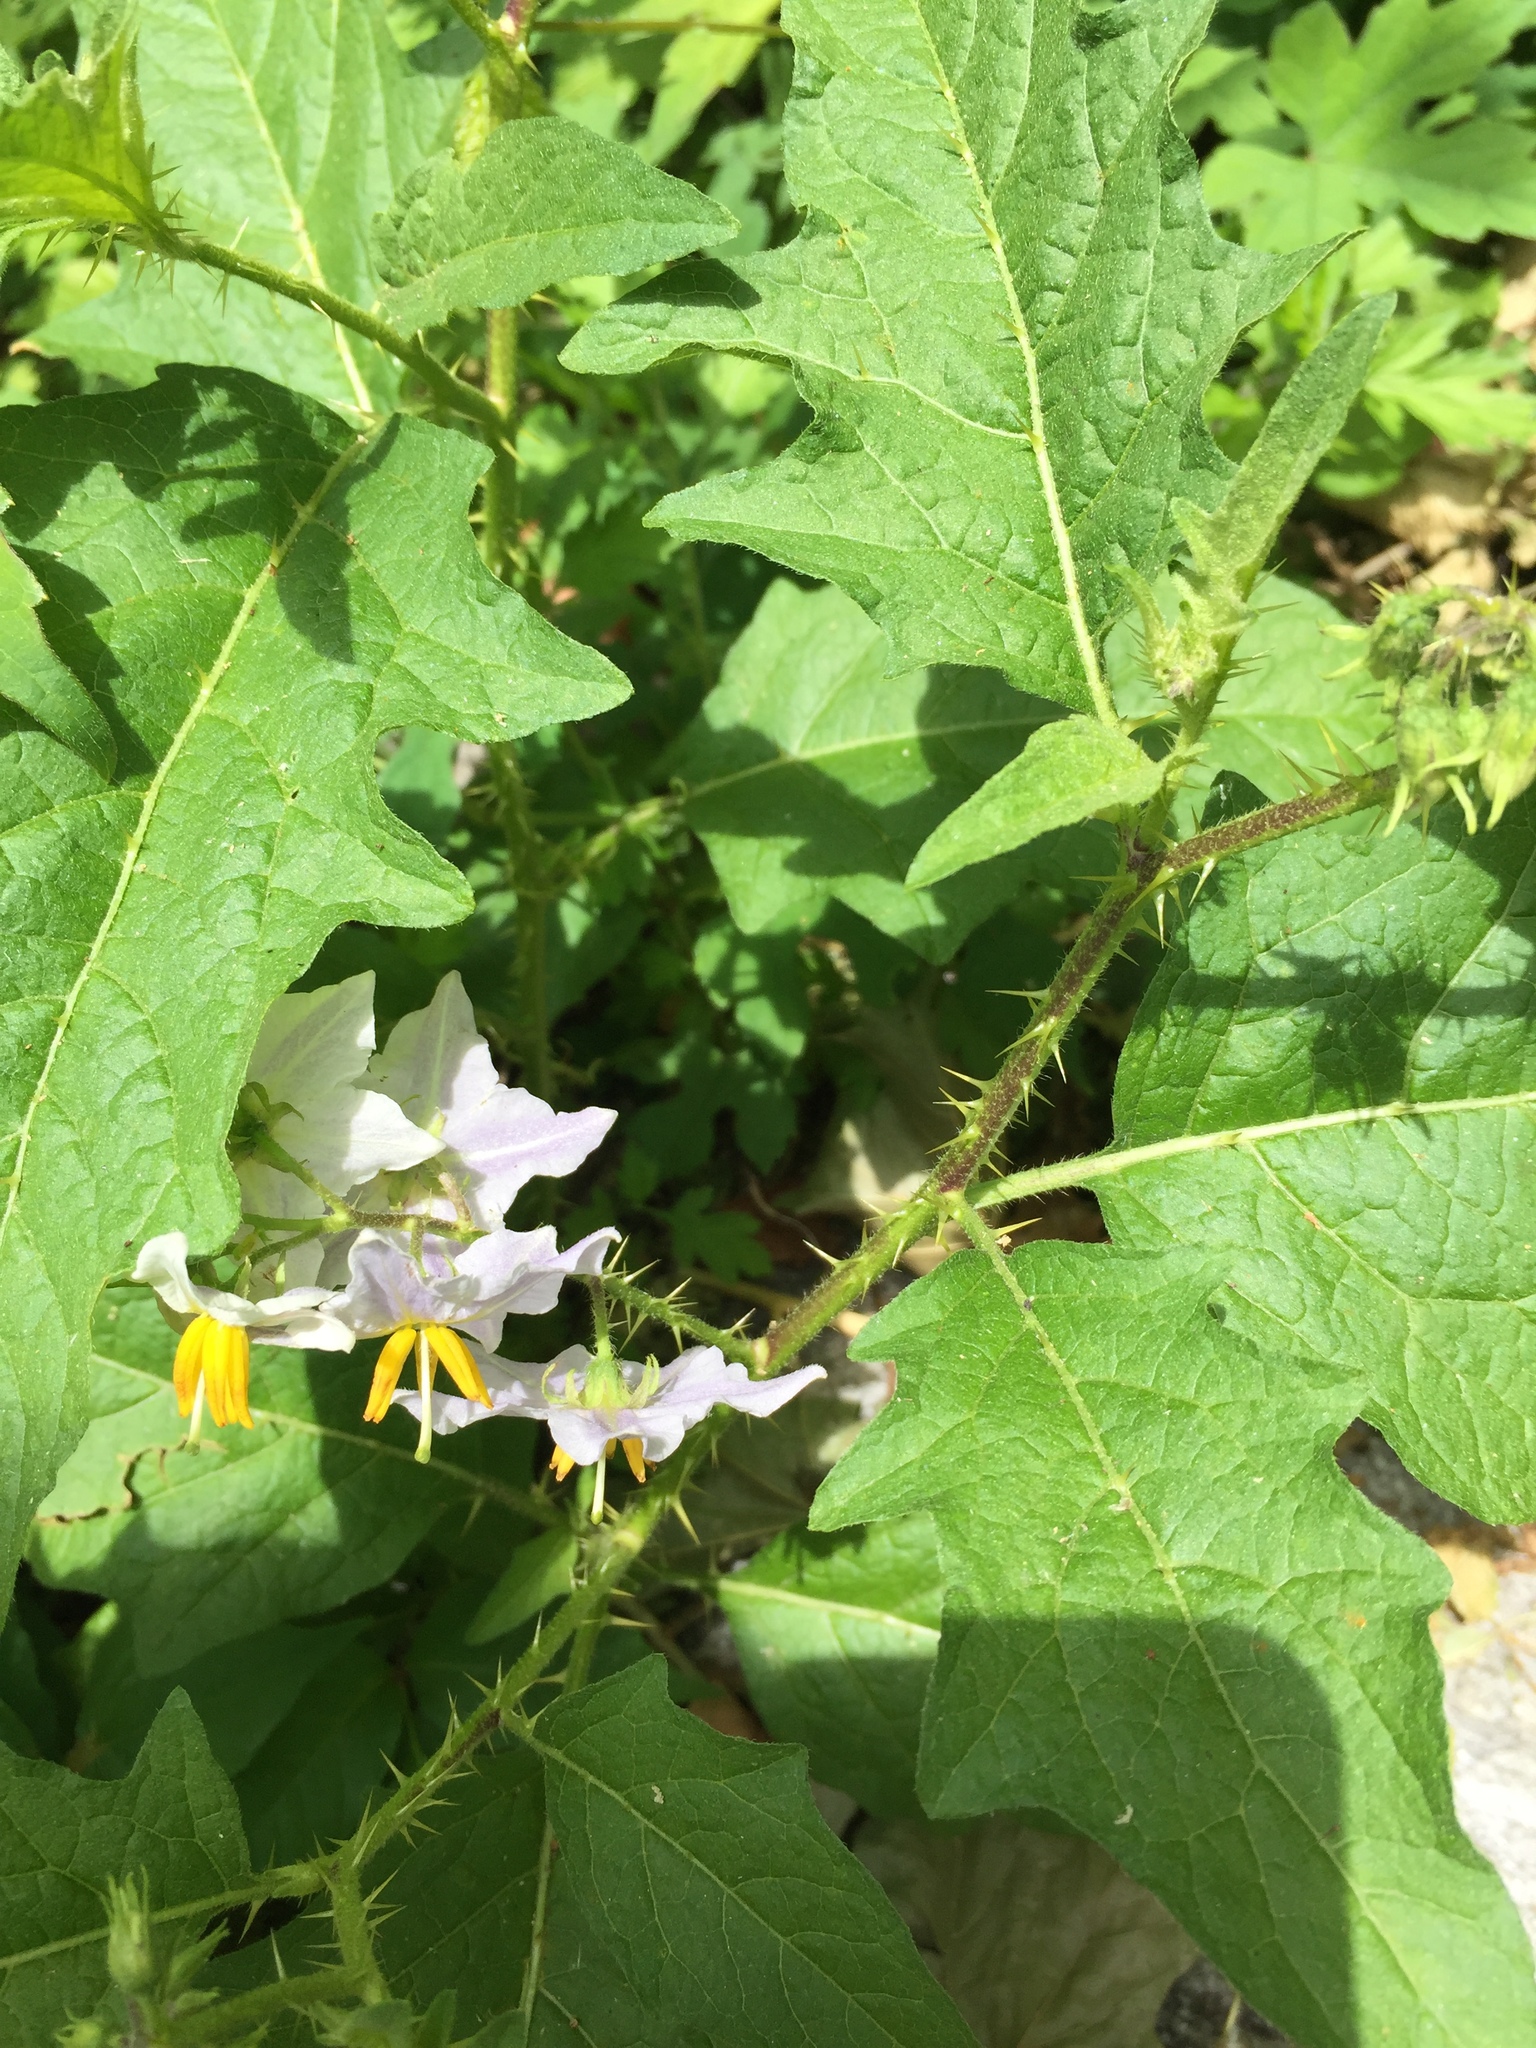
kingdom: Plantae
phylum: Tracheophyta
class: Magnoliopsida
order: Solanales
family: Solanaceae
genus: Solanum
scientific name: Solanum carolinense
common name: Horse-nettle
